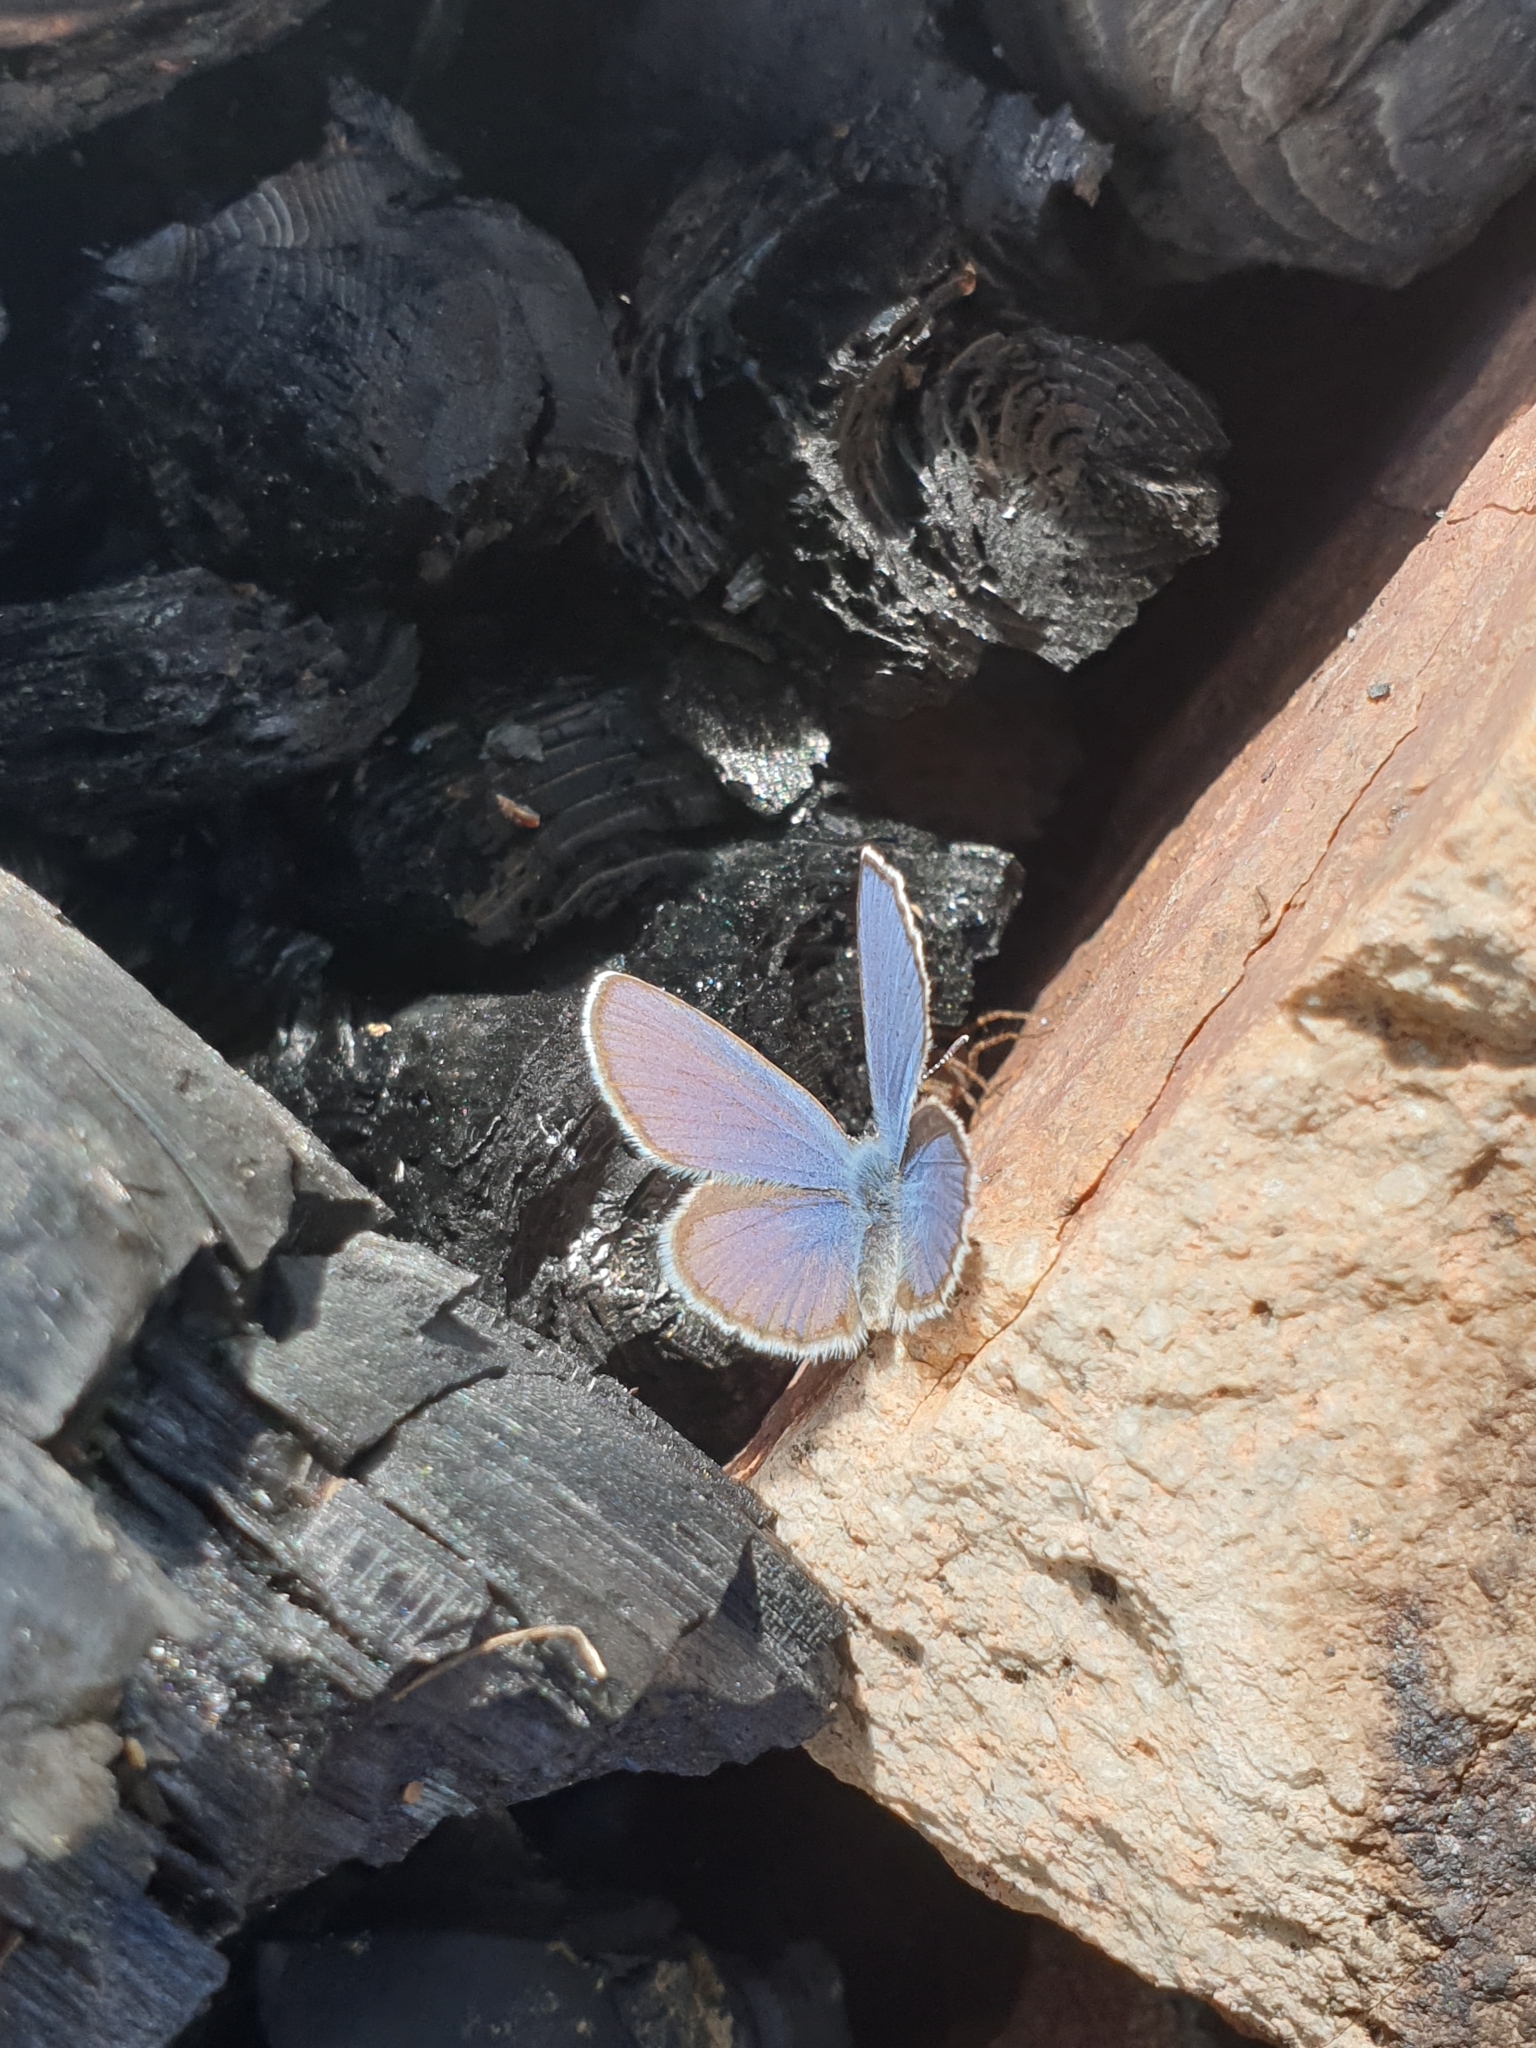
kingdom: Animalia
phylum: Arthropoda
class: Insecta
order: Lepidoptera
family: Lycaenidae
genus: Vacciniina
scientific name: Vacciniina optilete
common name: Cranberry blue
